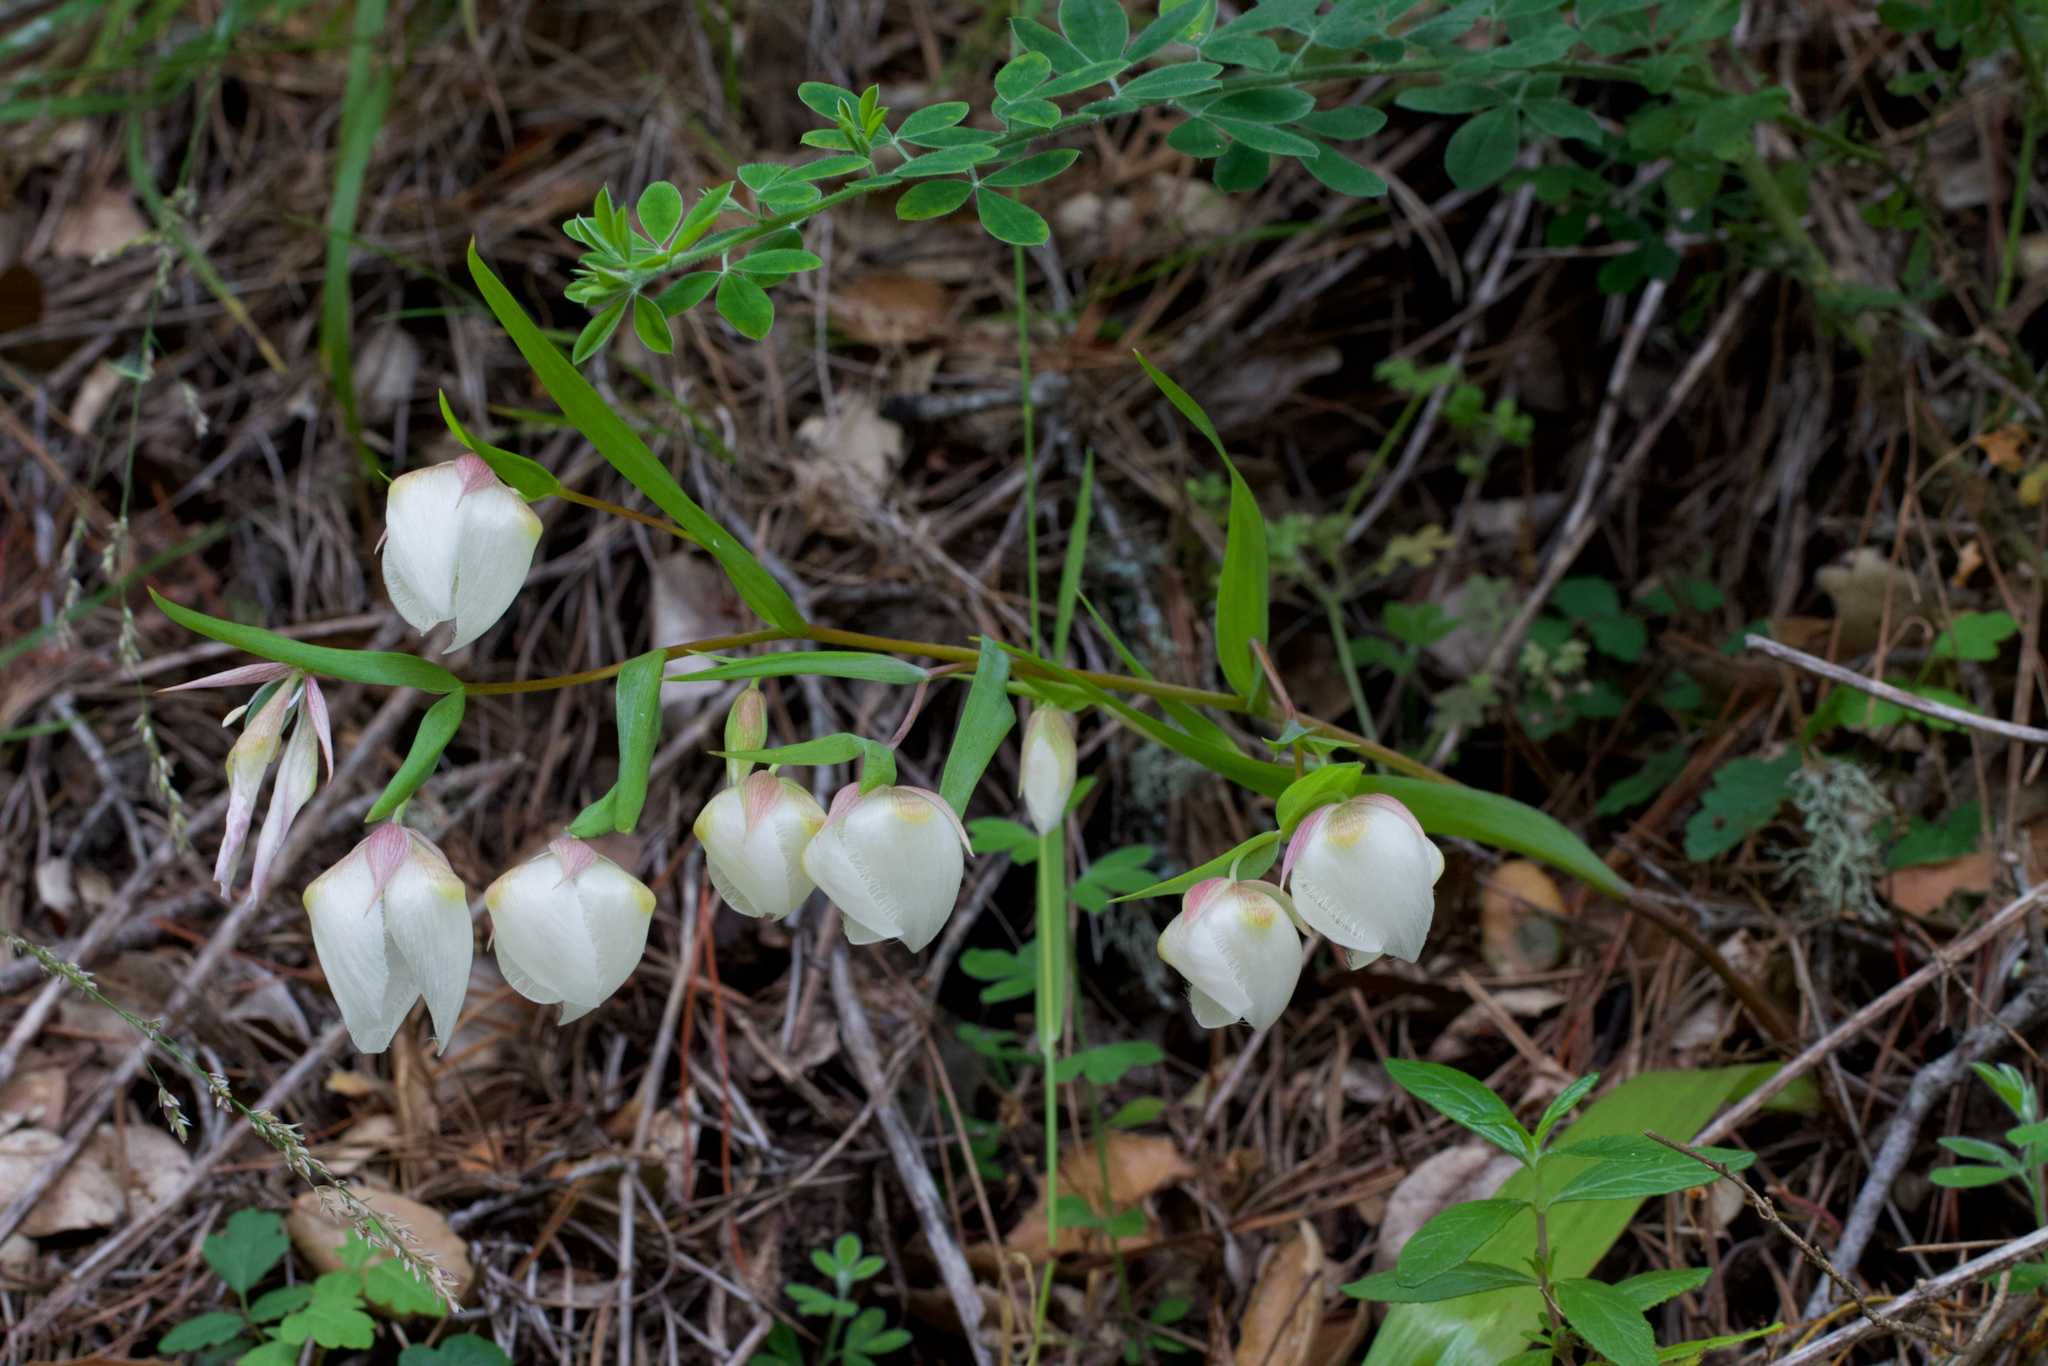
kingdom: Plantae
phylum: Tracheophyta
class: Liliopsida
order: Liliales
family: Liliaceae
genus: Calochortus
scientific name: Calochortus albus
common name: Fairy-lantern
